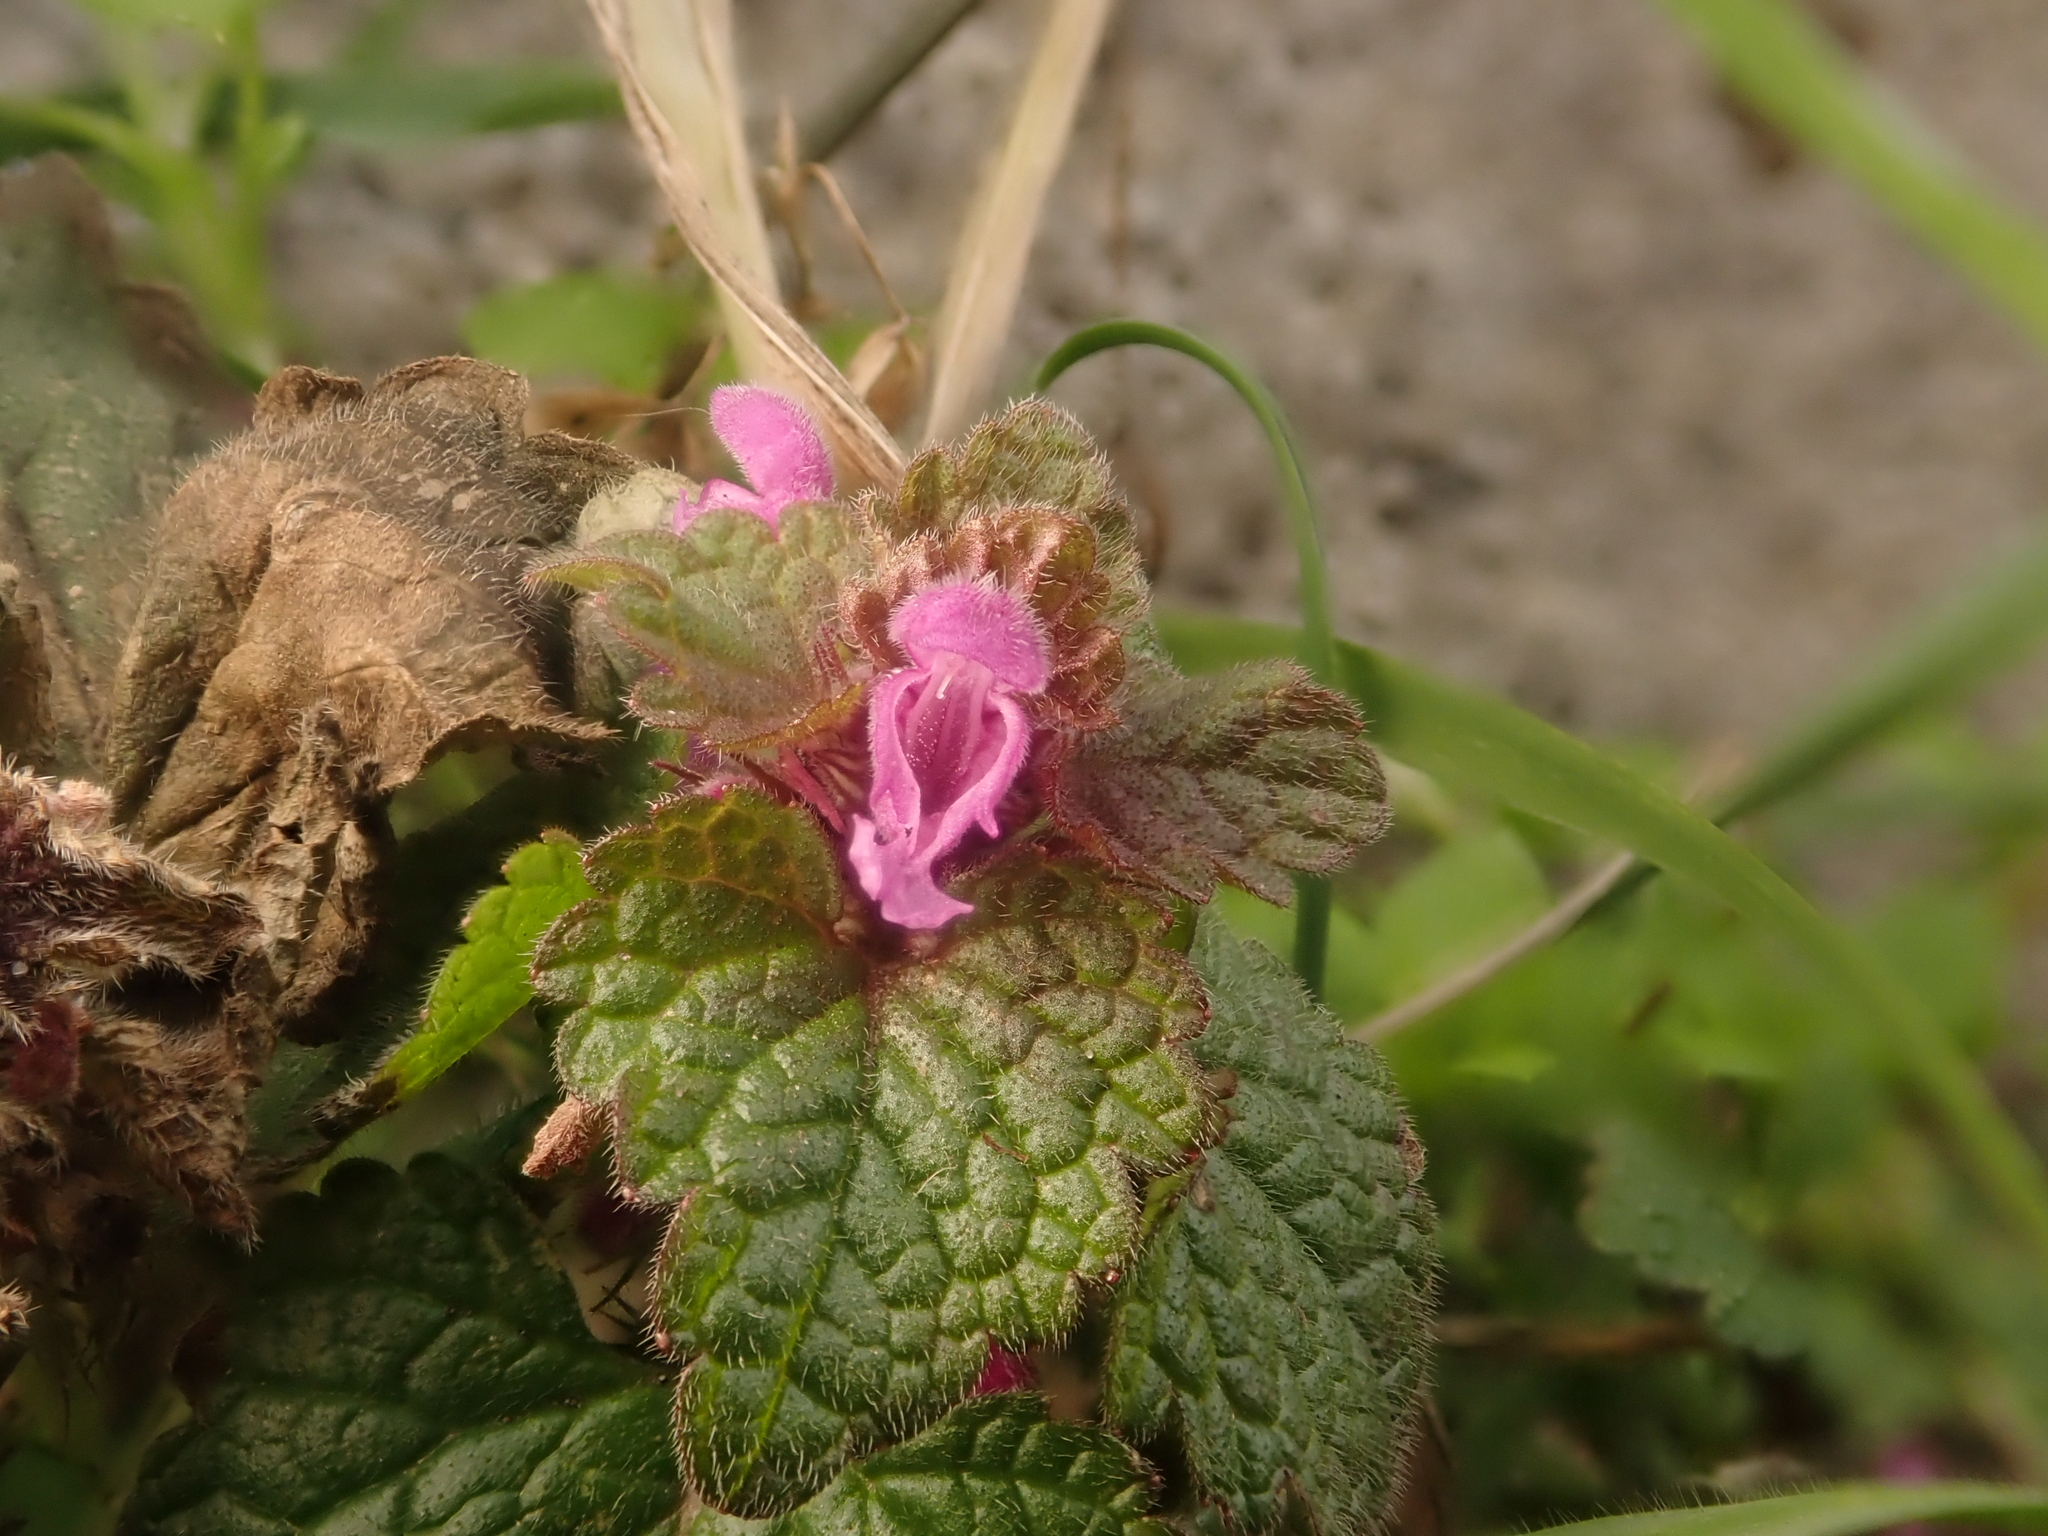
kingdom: Plantae
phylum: Tracheophyta
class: Magnoliopsida
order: Lamiales
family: Lamiaceae
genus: Lamium
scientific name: Lamium purpureum
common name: Red dead-nettle
